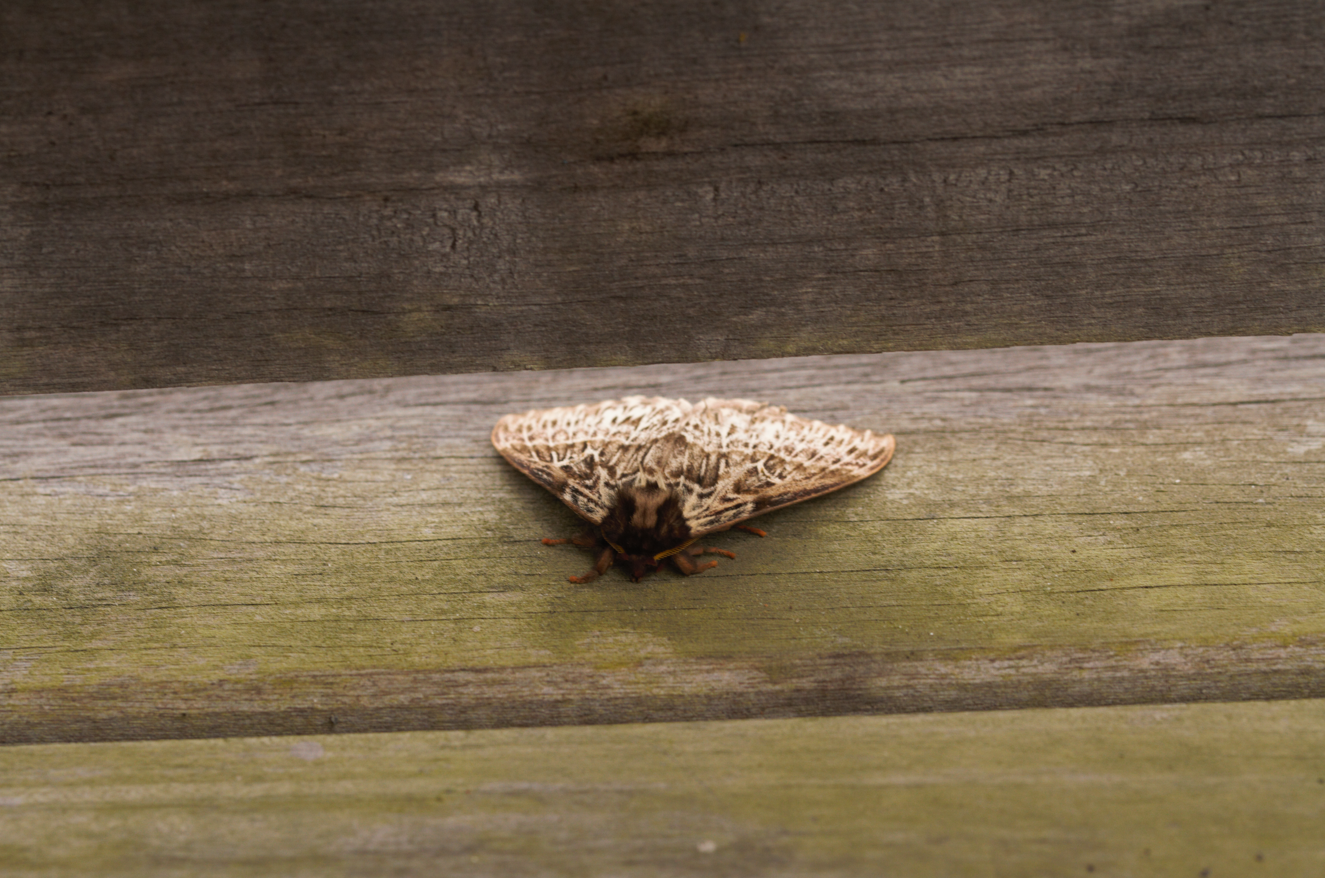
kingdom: Animalia
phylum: Arthropoda
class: Insecta
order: Lepidoptera
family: Saturniidae
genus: Dirphia
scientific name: Dirphia radiata
